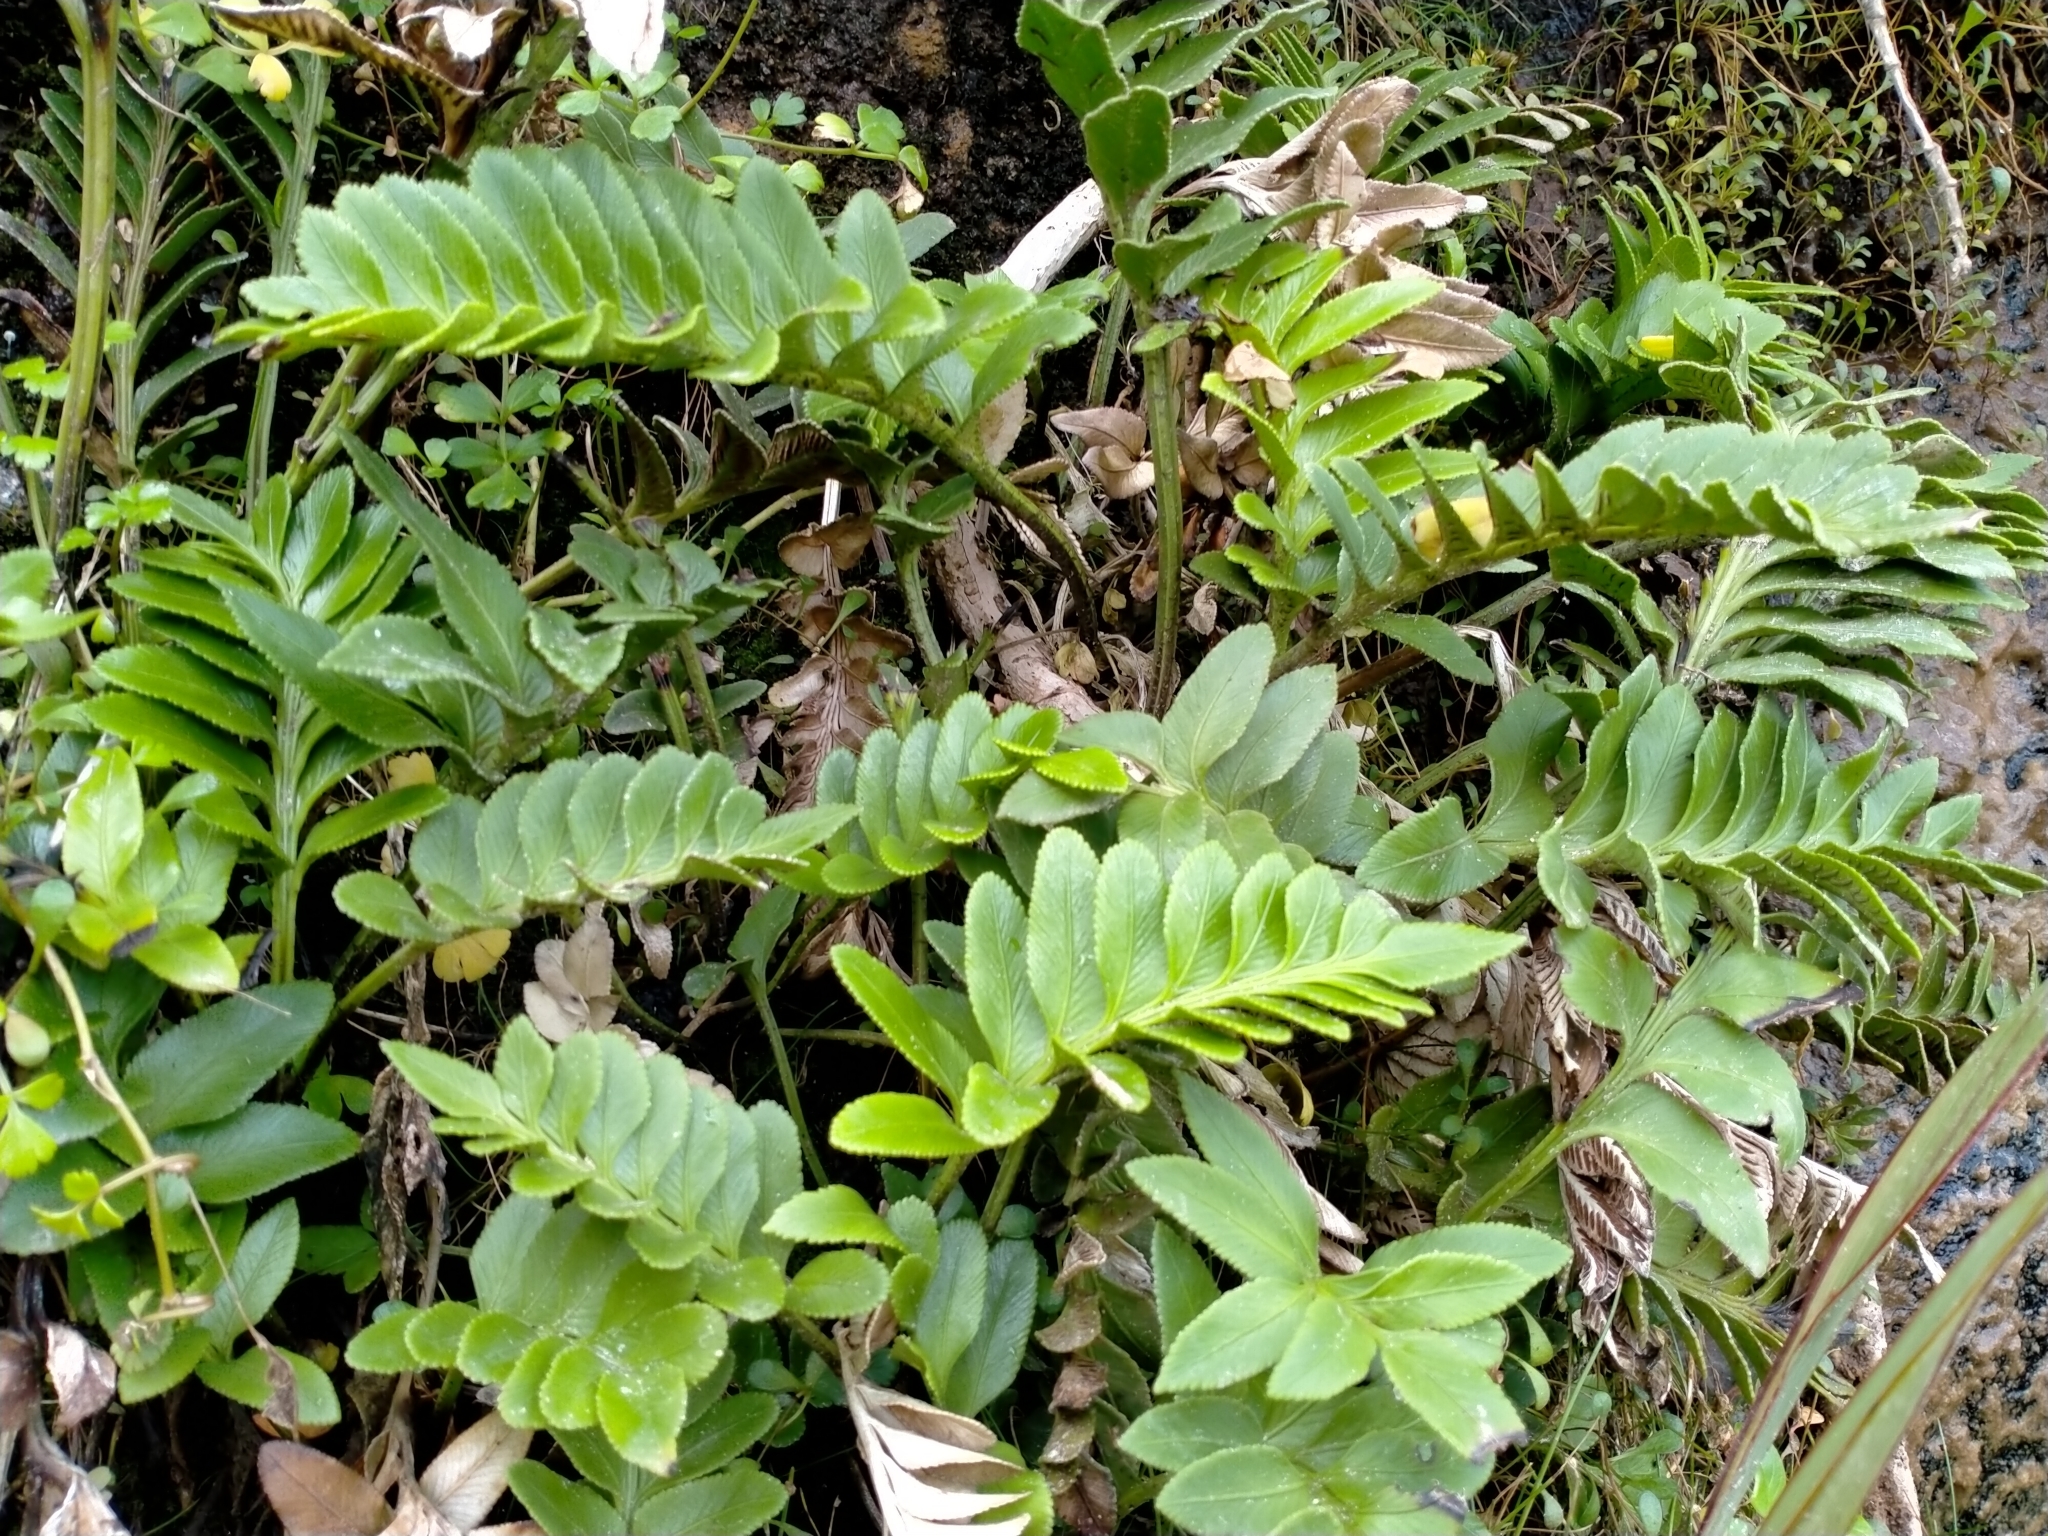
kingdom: Plantae
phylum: Tracheophyta
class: Polypodiopsida
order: Polypodiales
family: Aspleniaceae
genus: Asplenium
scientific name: Asplenium obtusatum
